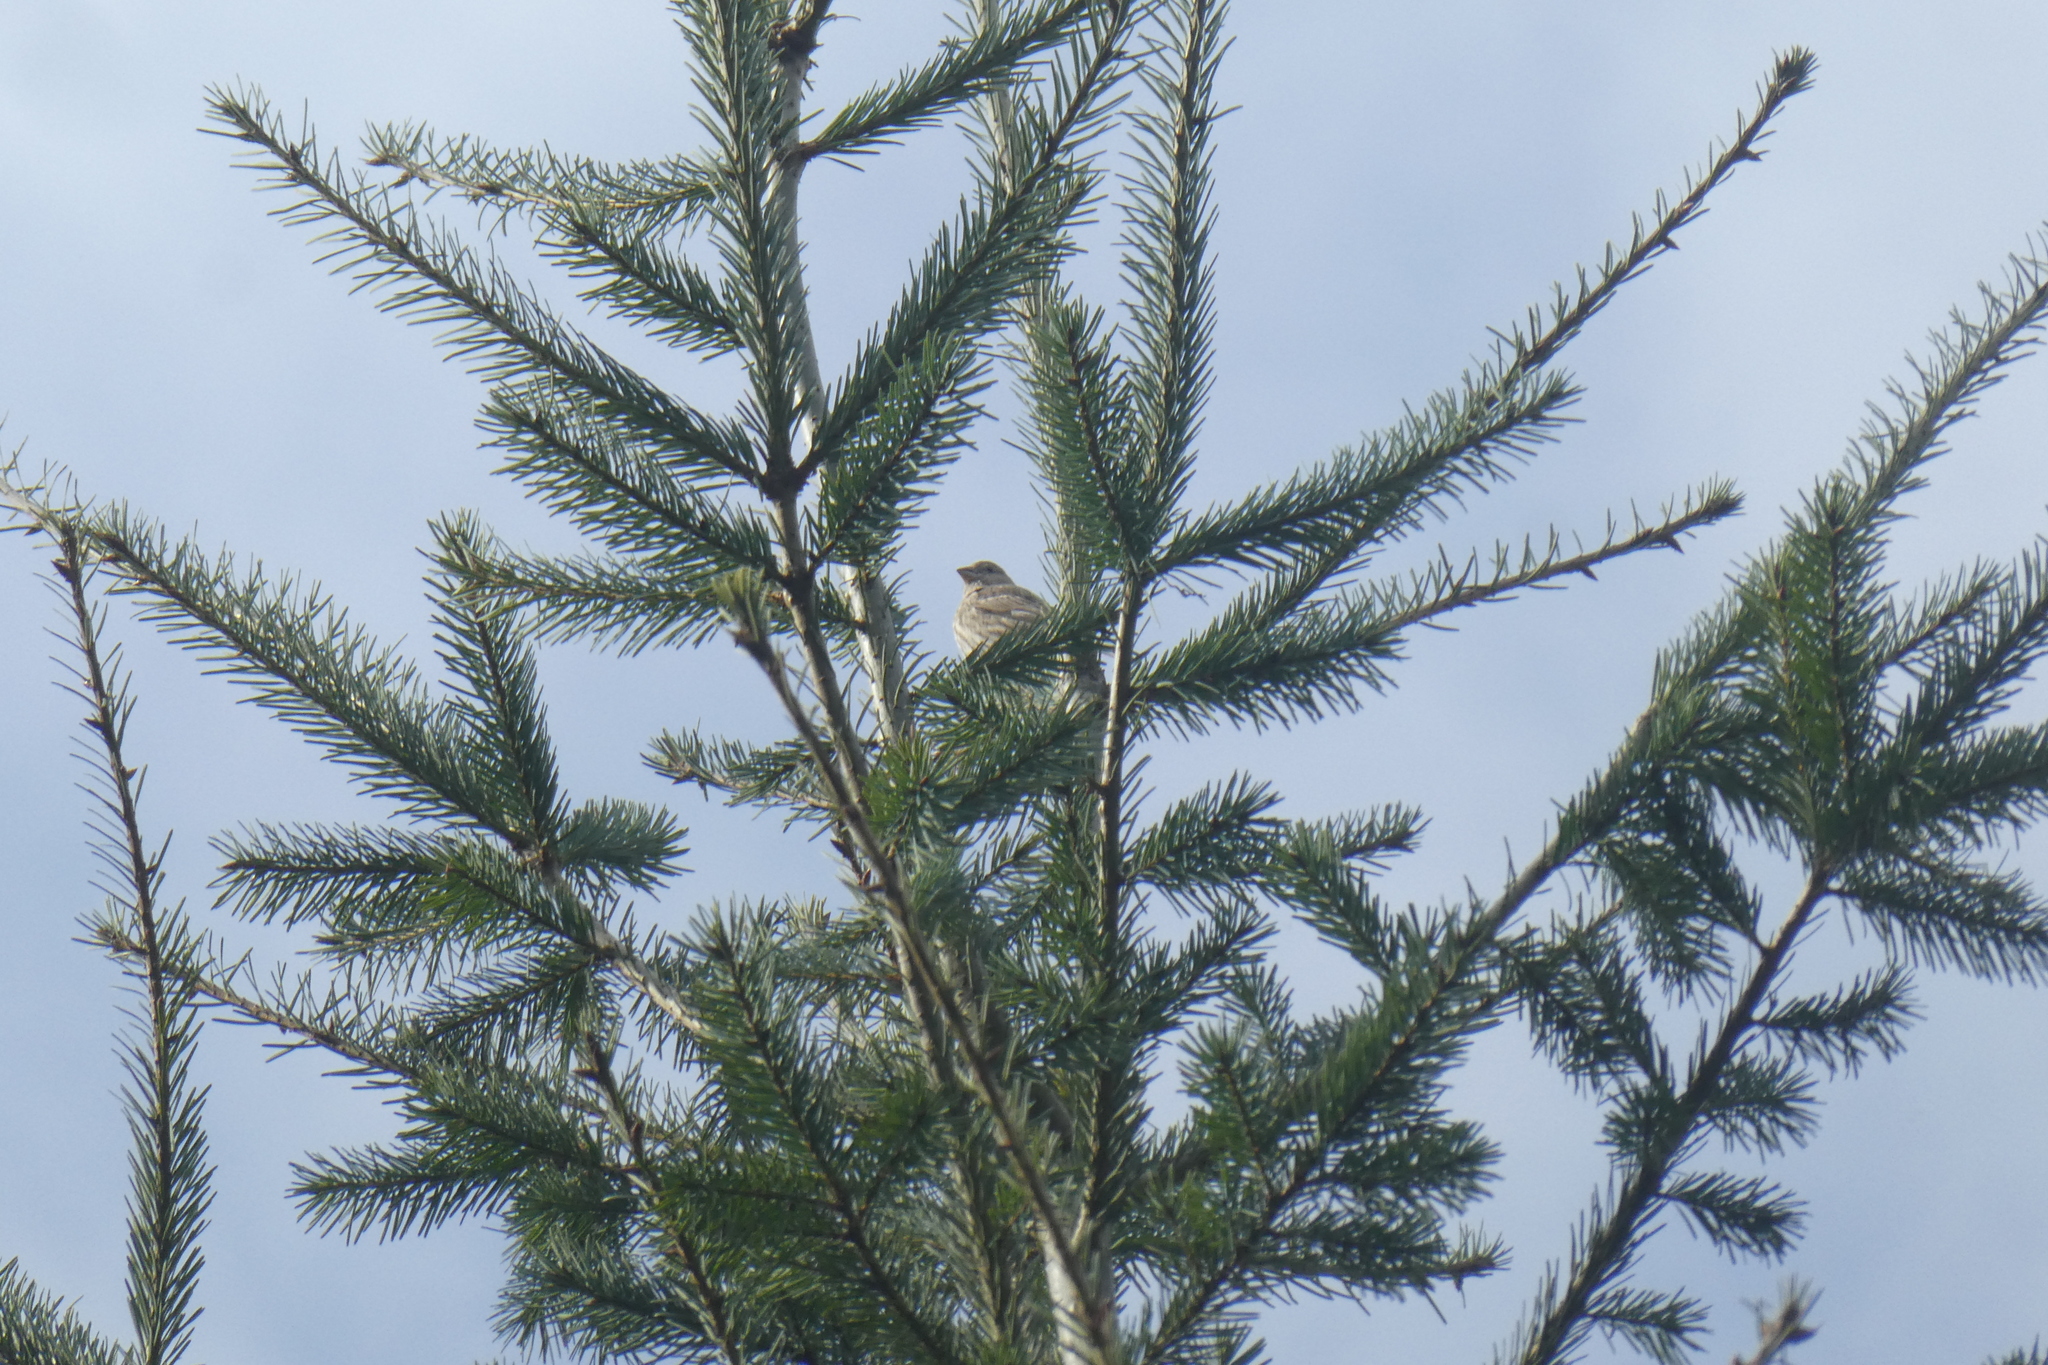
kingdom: Animalia
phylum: Chordata
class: Aves
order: Passeriformes
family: Fringillidae
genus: Haemorhous
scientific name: Haemorhous mexicanus
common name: House finch
